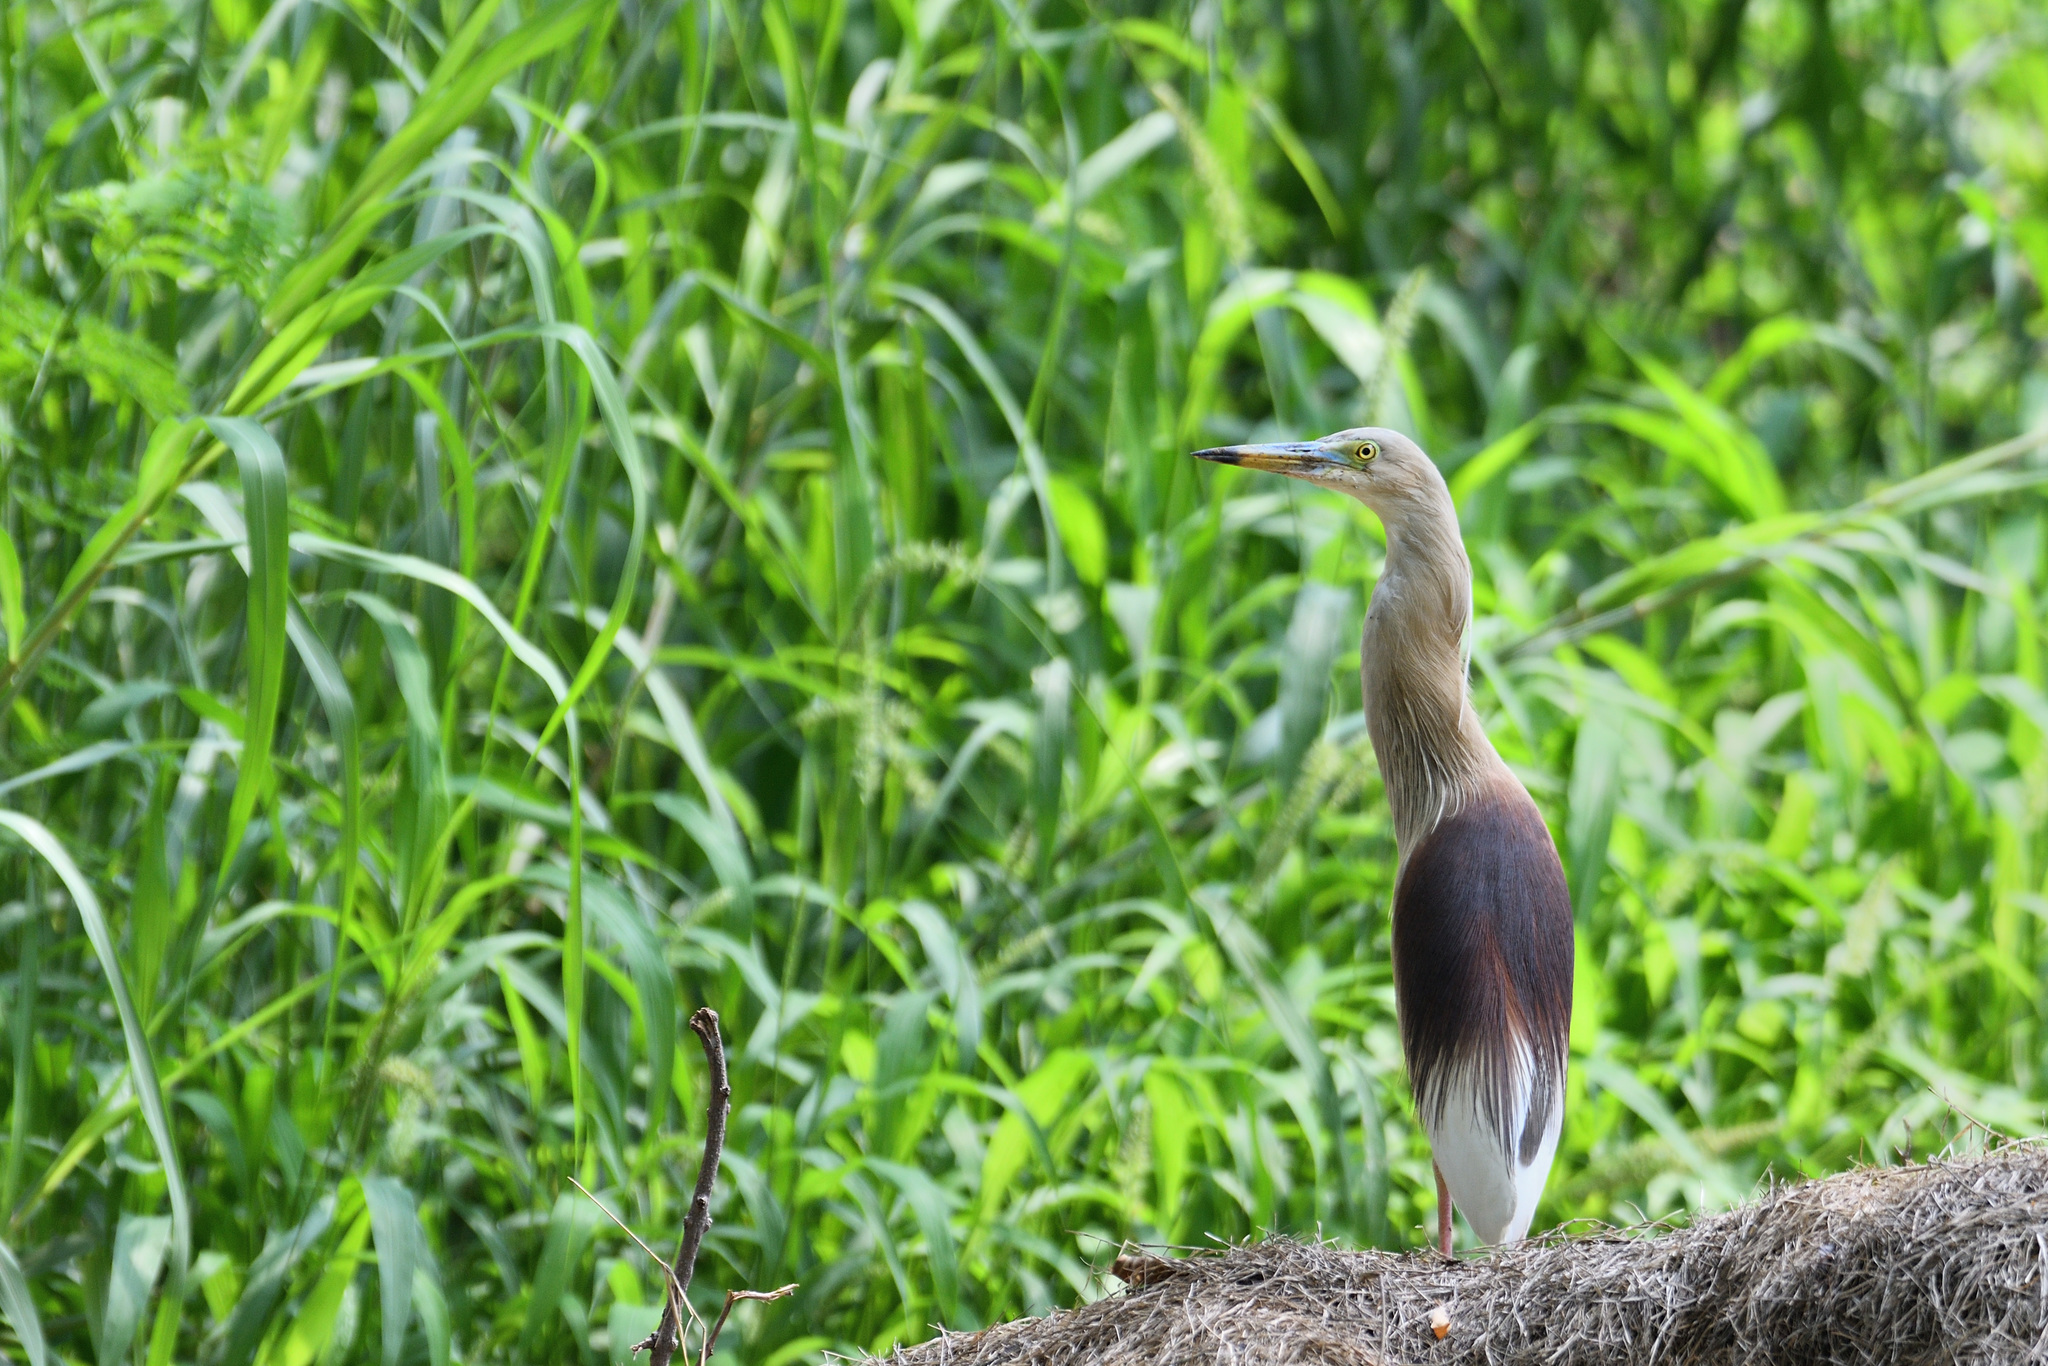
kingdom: Animalia
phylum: Chordata
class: Aves
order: Pelecaniformes
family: Ardeidae
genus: Ardeola
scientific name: Ardeola grayii
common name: Indian pond heron
